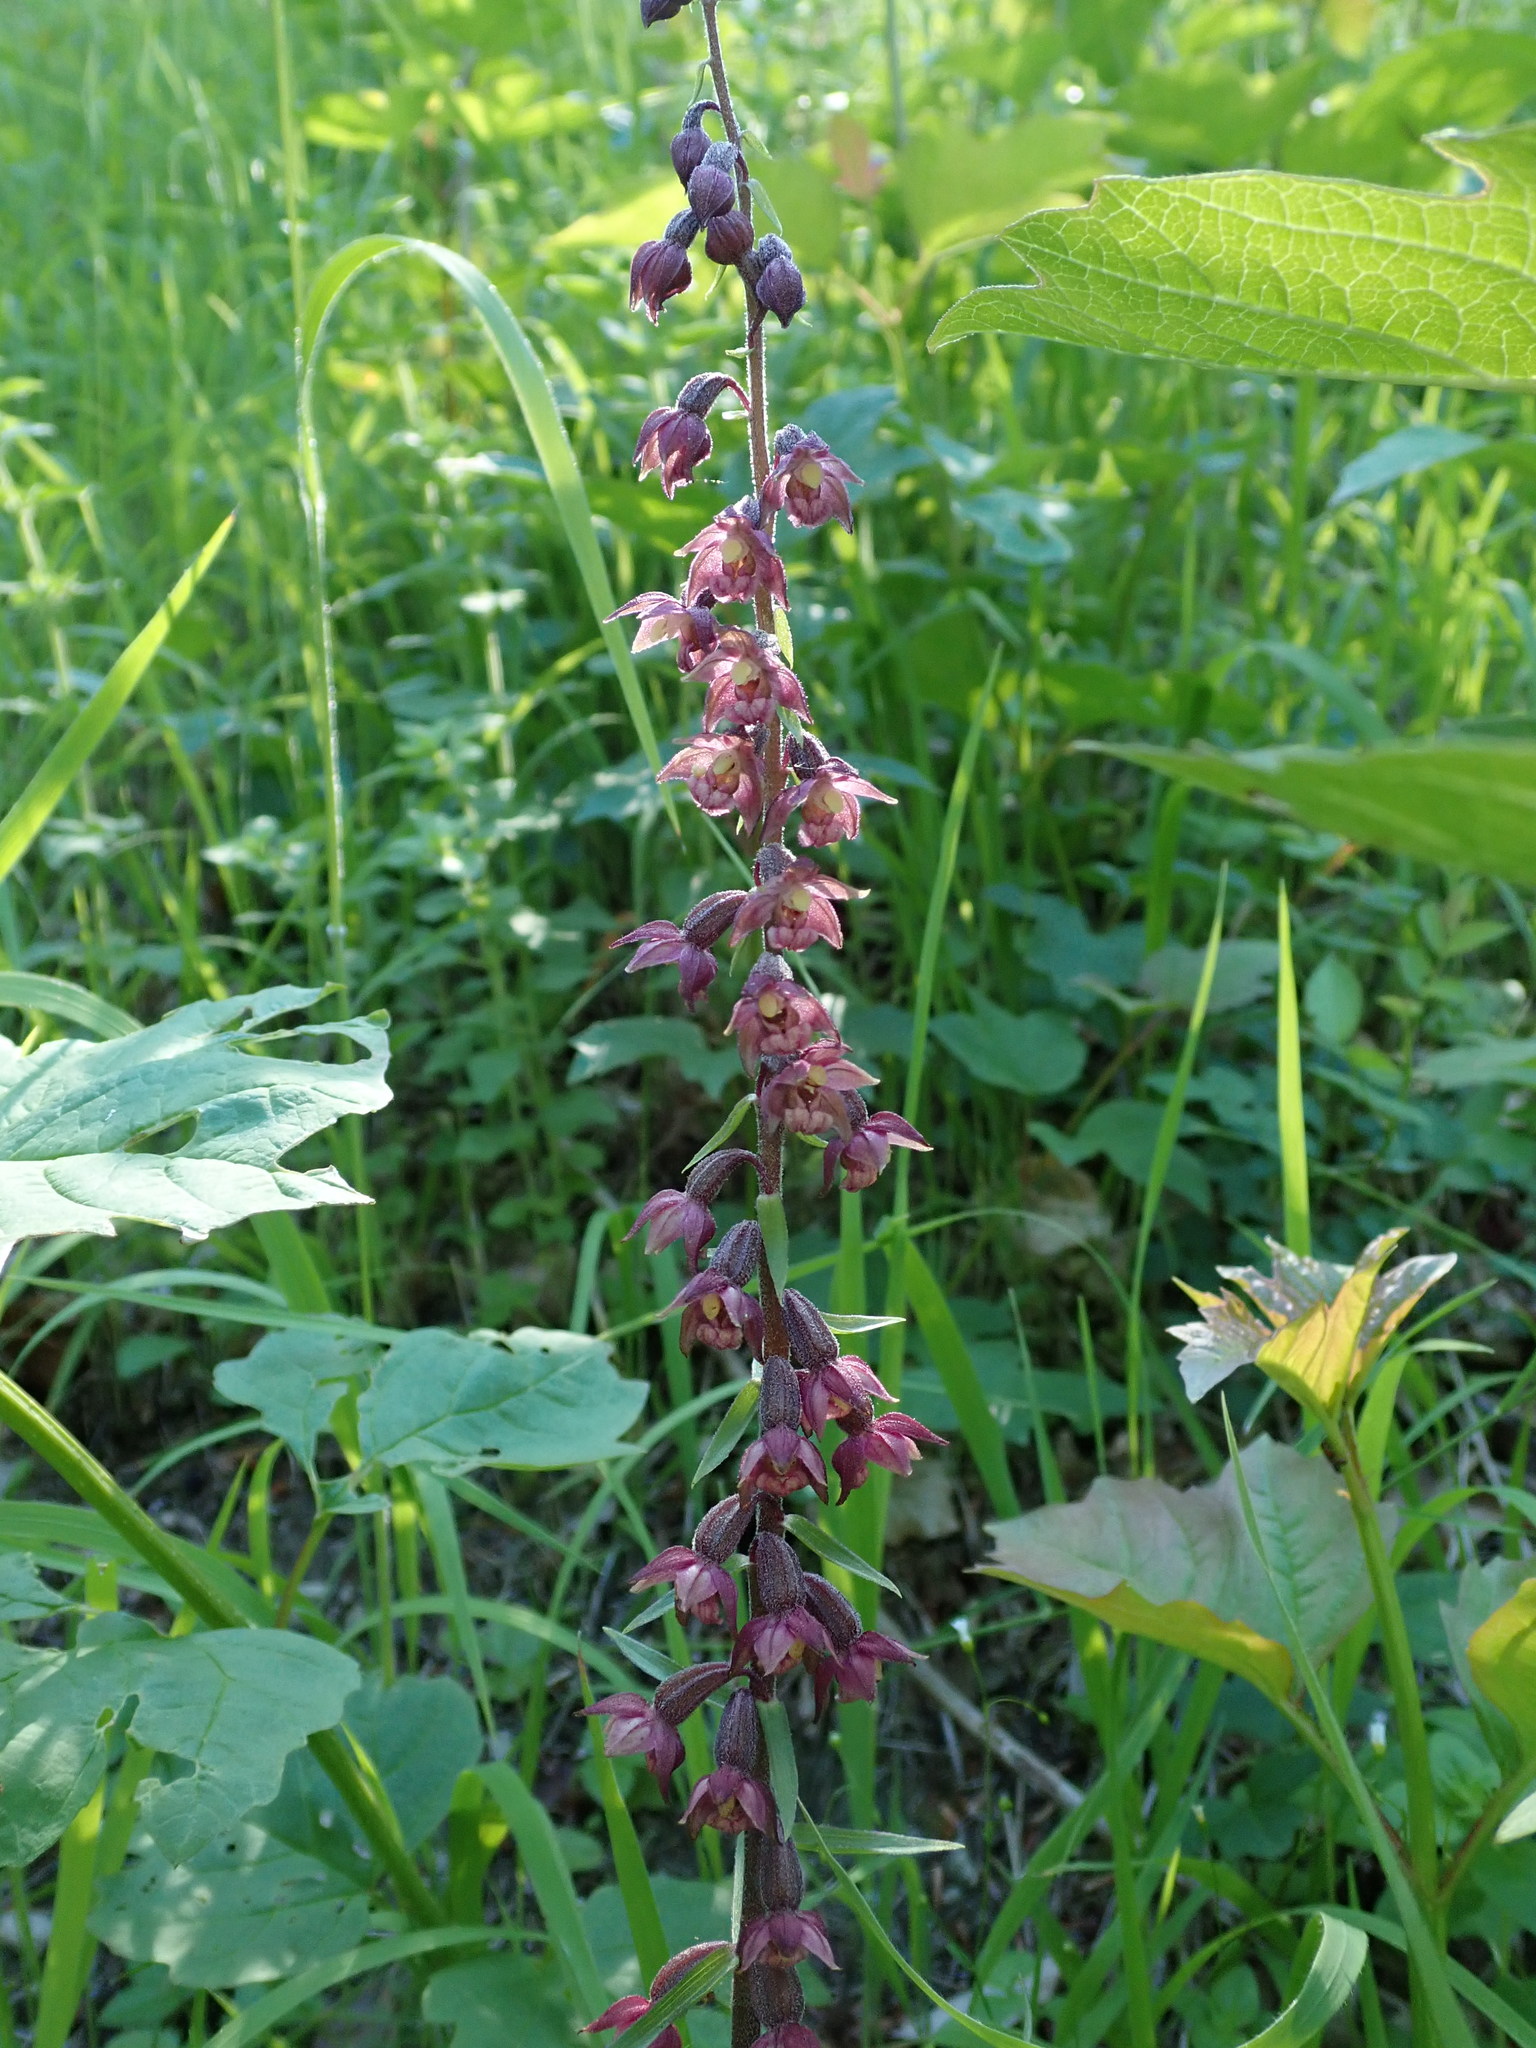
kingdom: Plantae
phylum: Tracheophyta
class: Liliopsida
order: Asparagales
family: Orchidaceae
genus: Epipactis
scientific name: Epipactis atrorubens
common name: Dark-red helleborine
